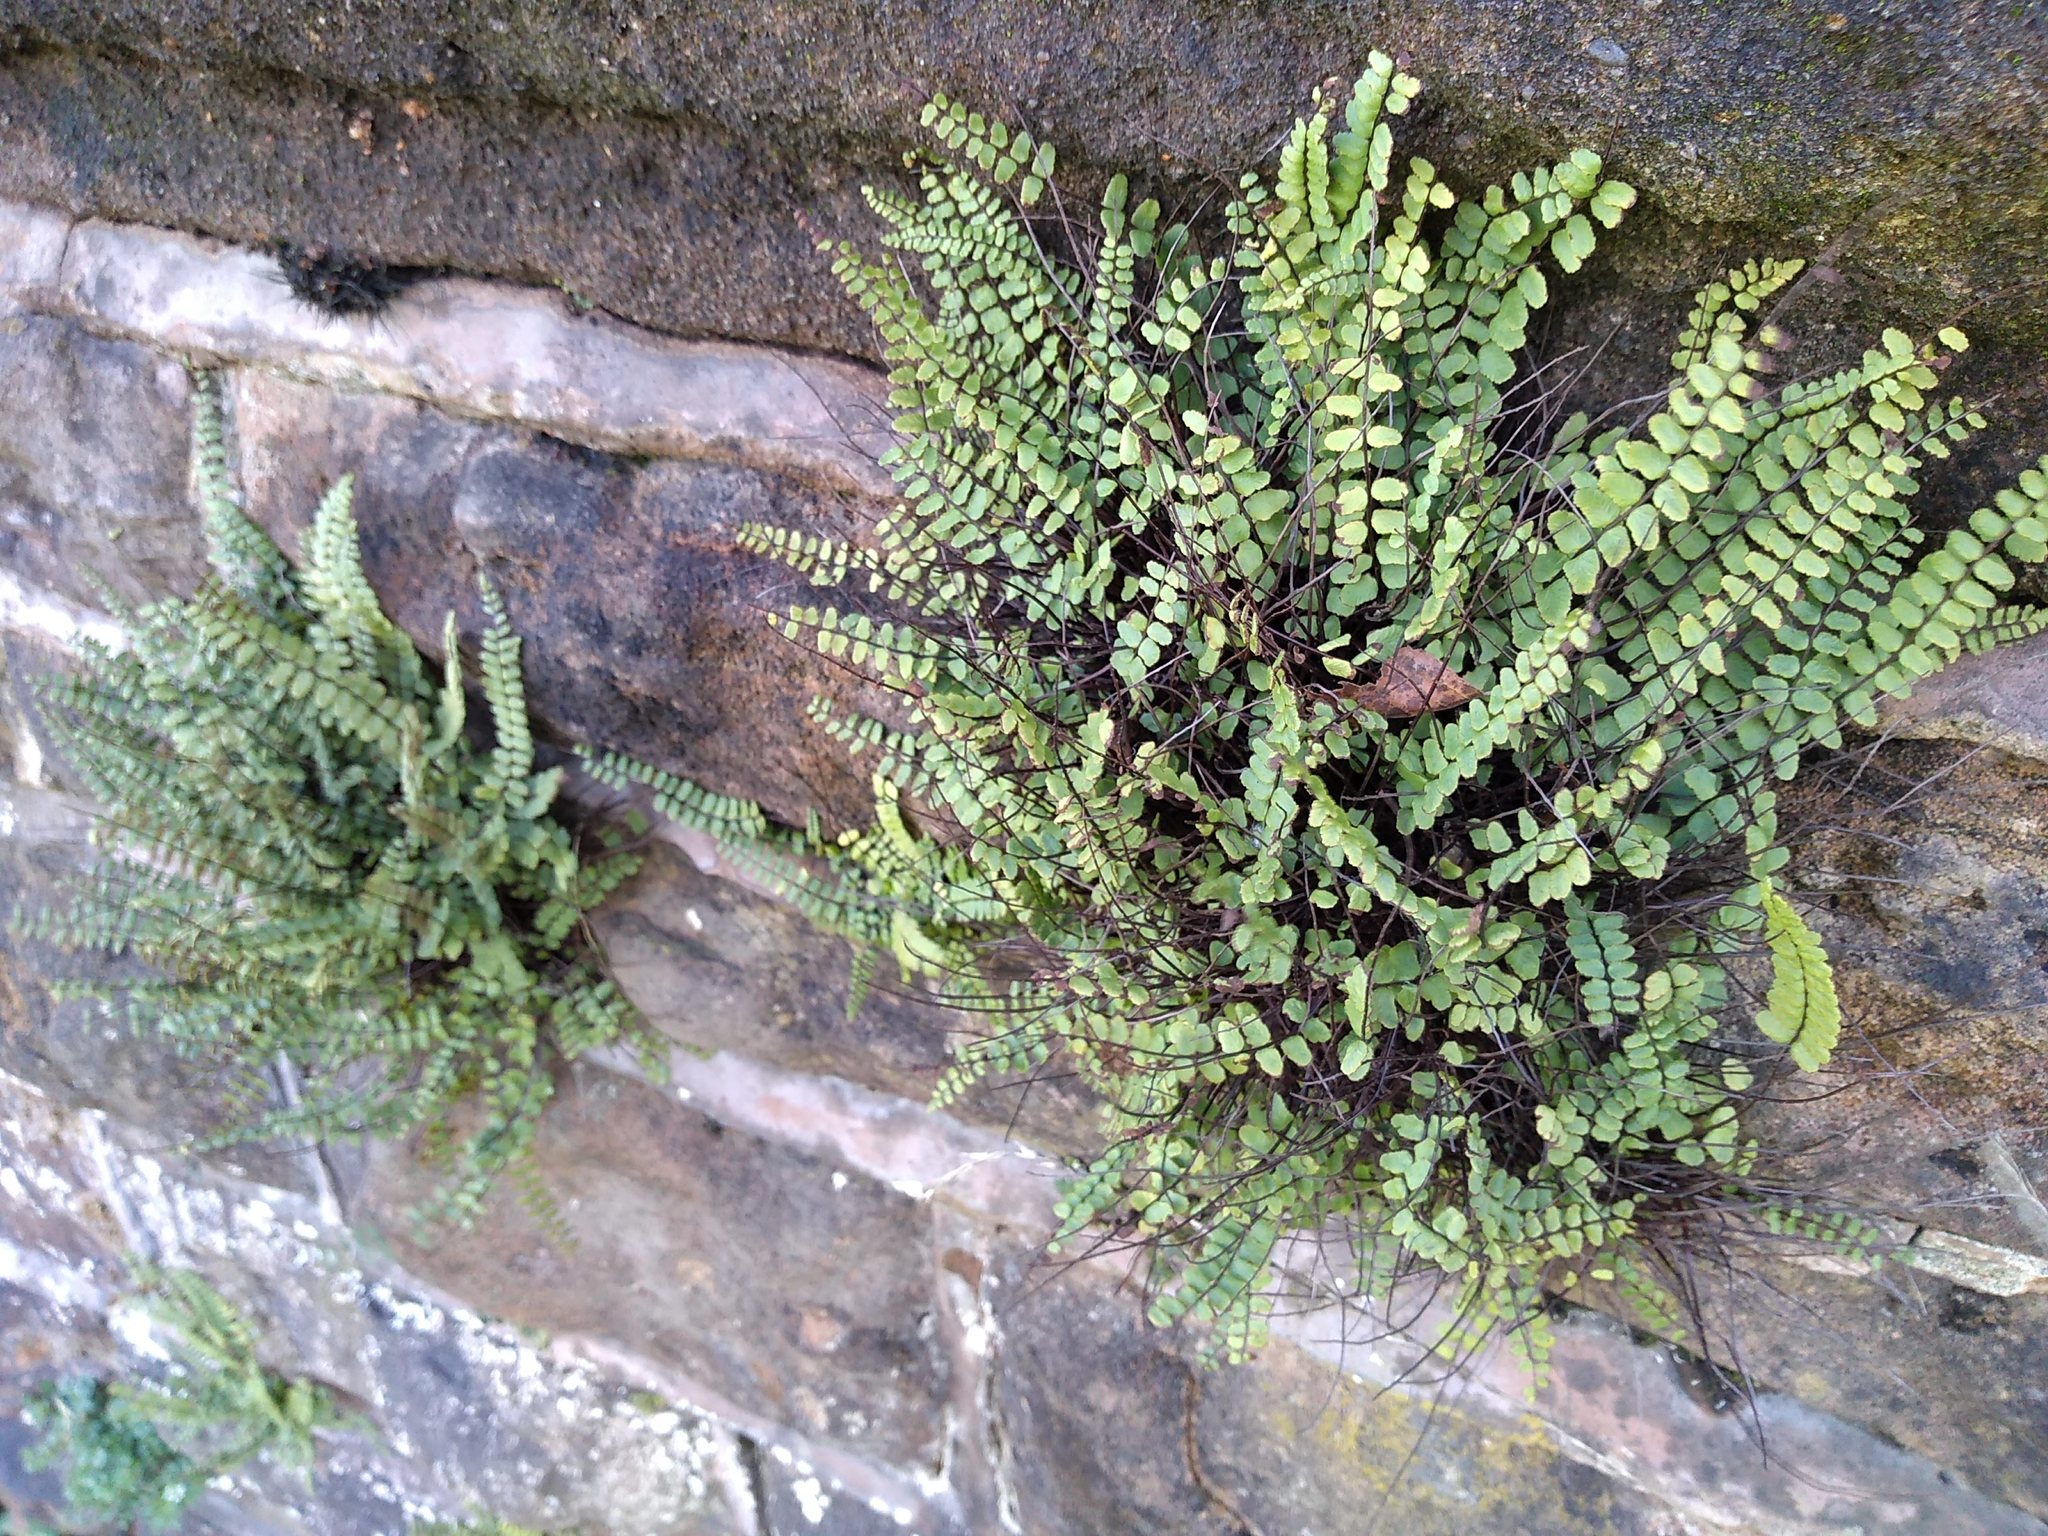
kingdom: Plantae
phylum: Tracheophyta
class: Polypodiopsida
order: Polypodiales
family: Aspleniaceae
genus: Asplenium
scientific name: Asplenium trichomanes
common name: Maidenhair spleenwort
